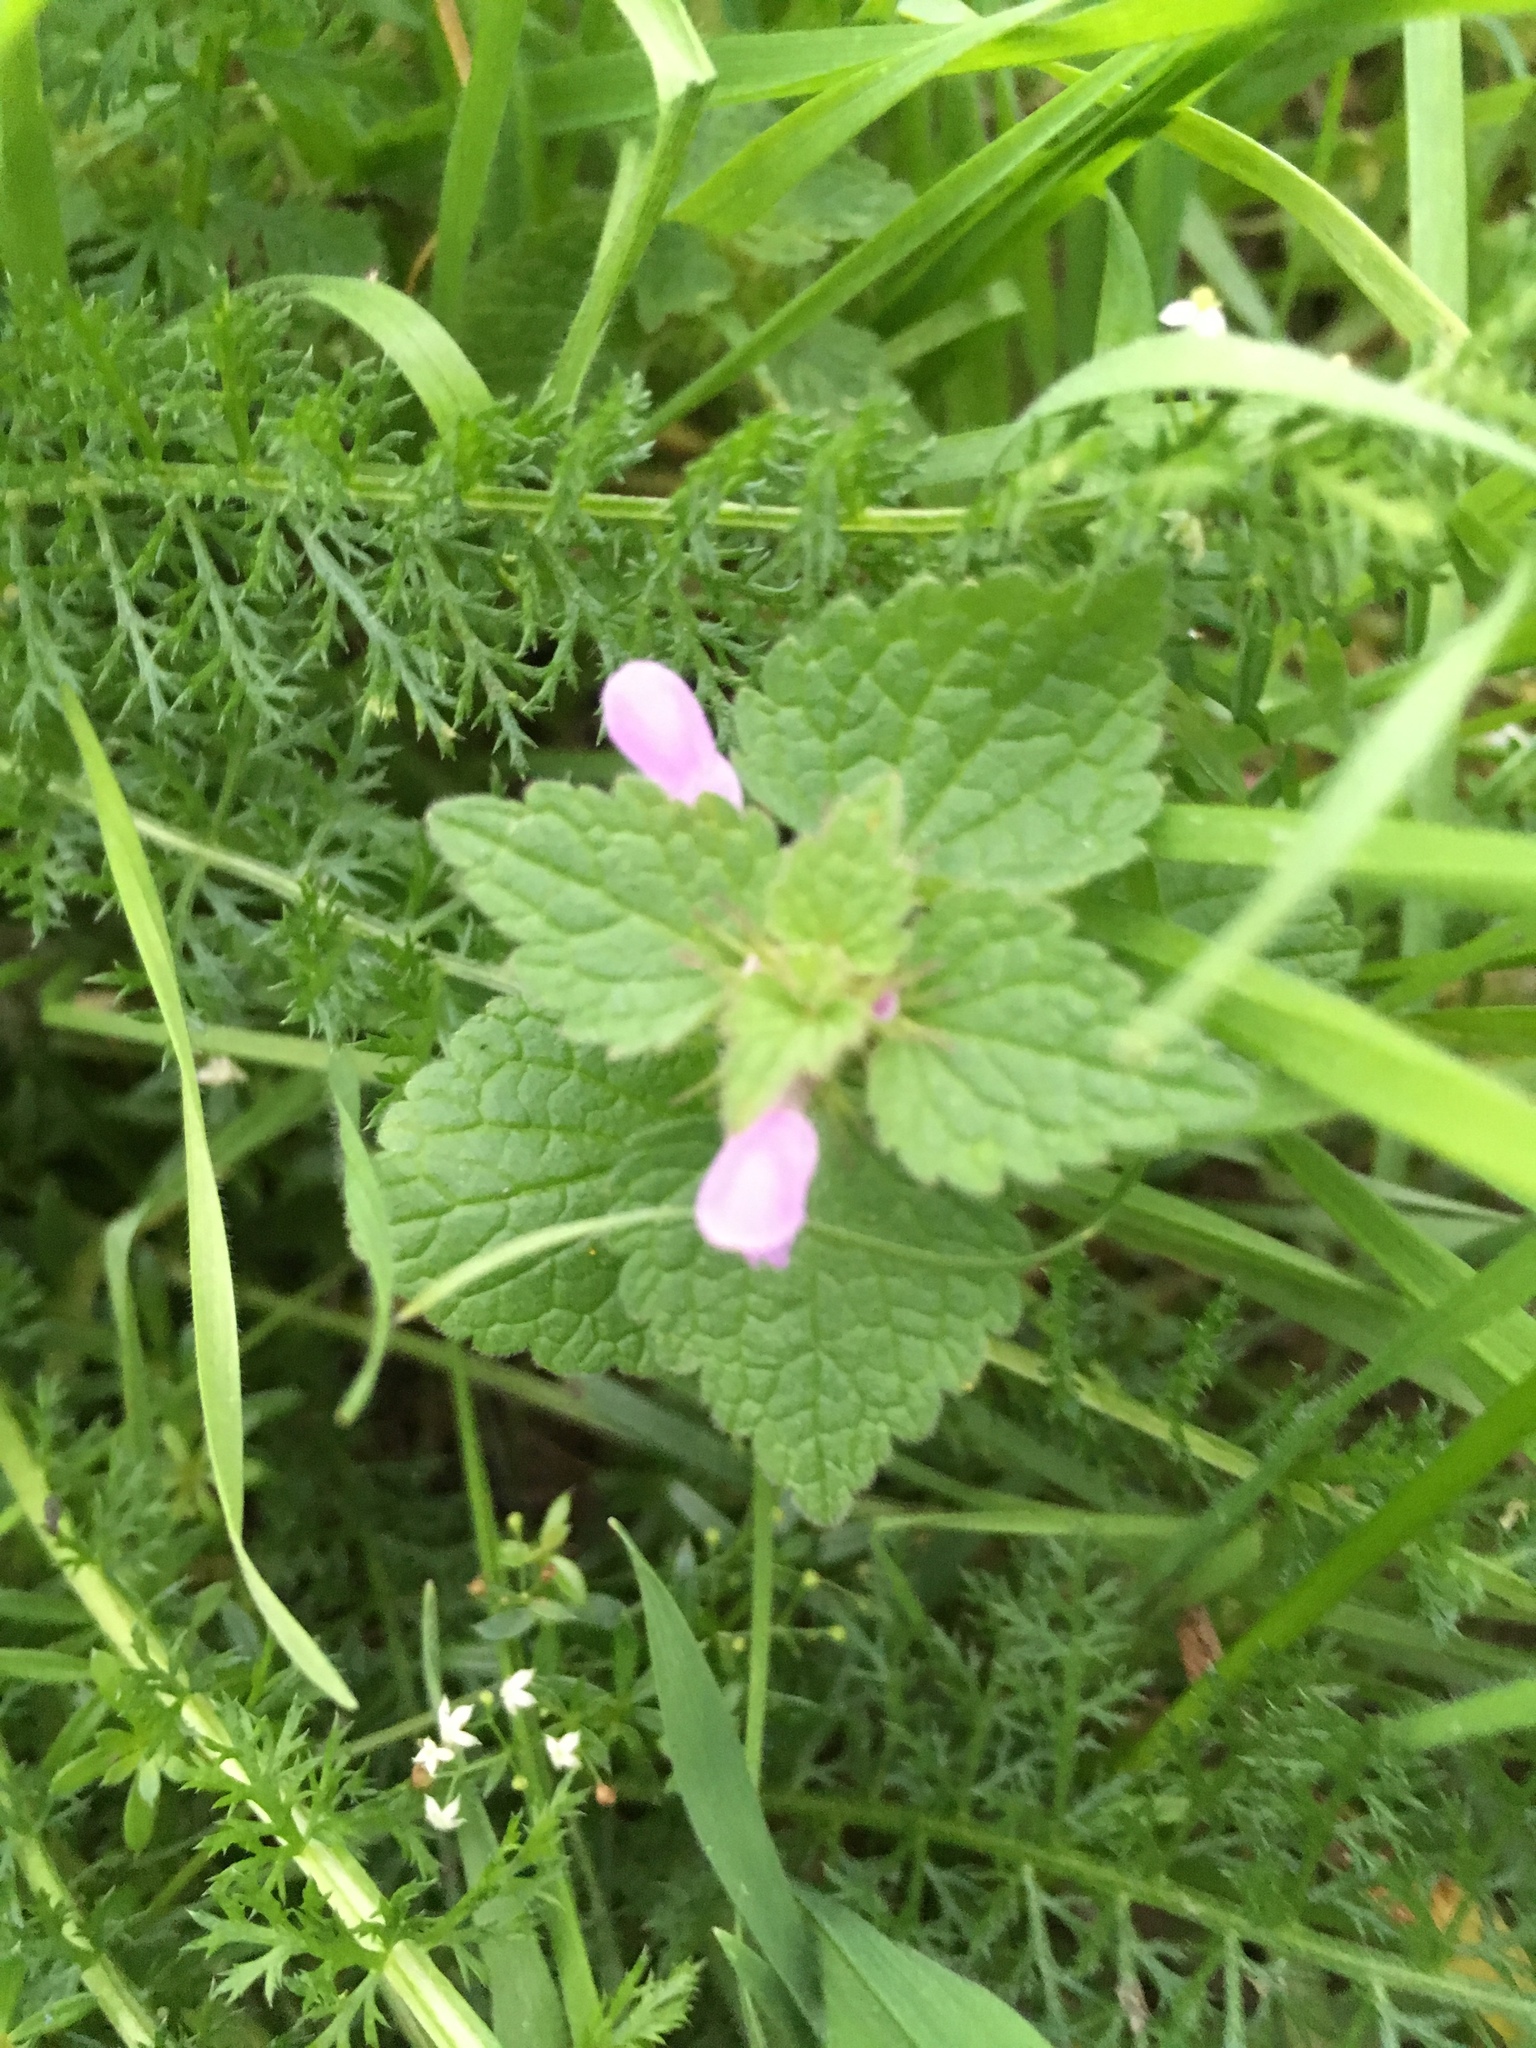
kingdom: Plantae
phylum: Tracheophyta
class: Magnoliopsida
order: Lamiales
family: Lamiaceae
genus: Lamium
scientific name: Lamium purpureum
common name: Red dead-nettle
